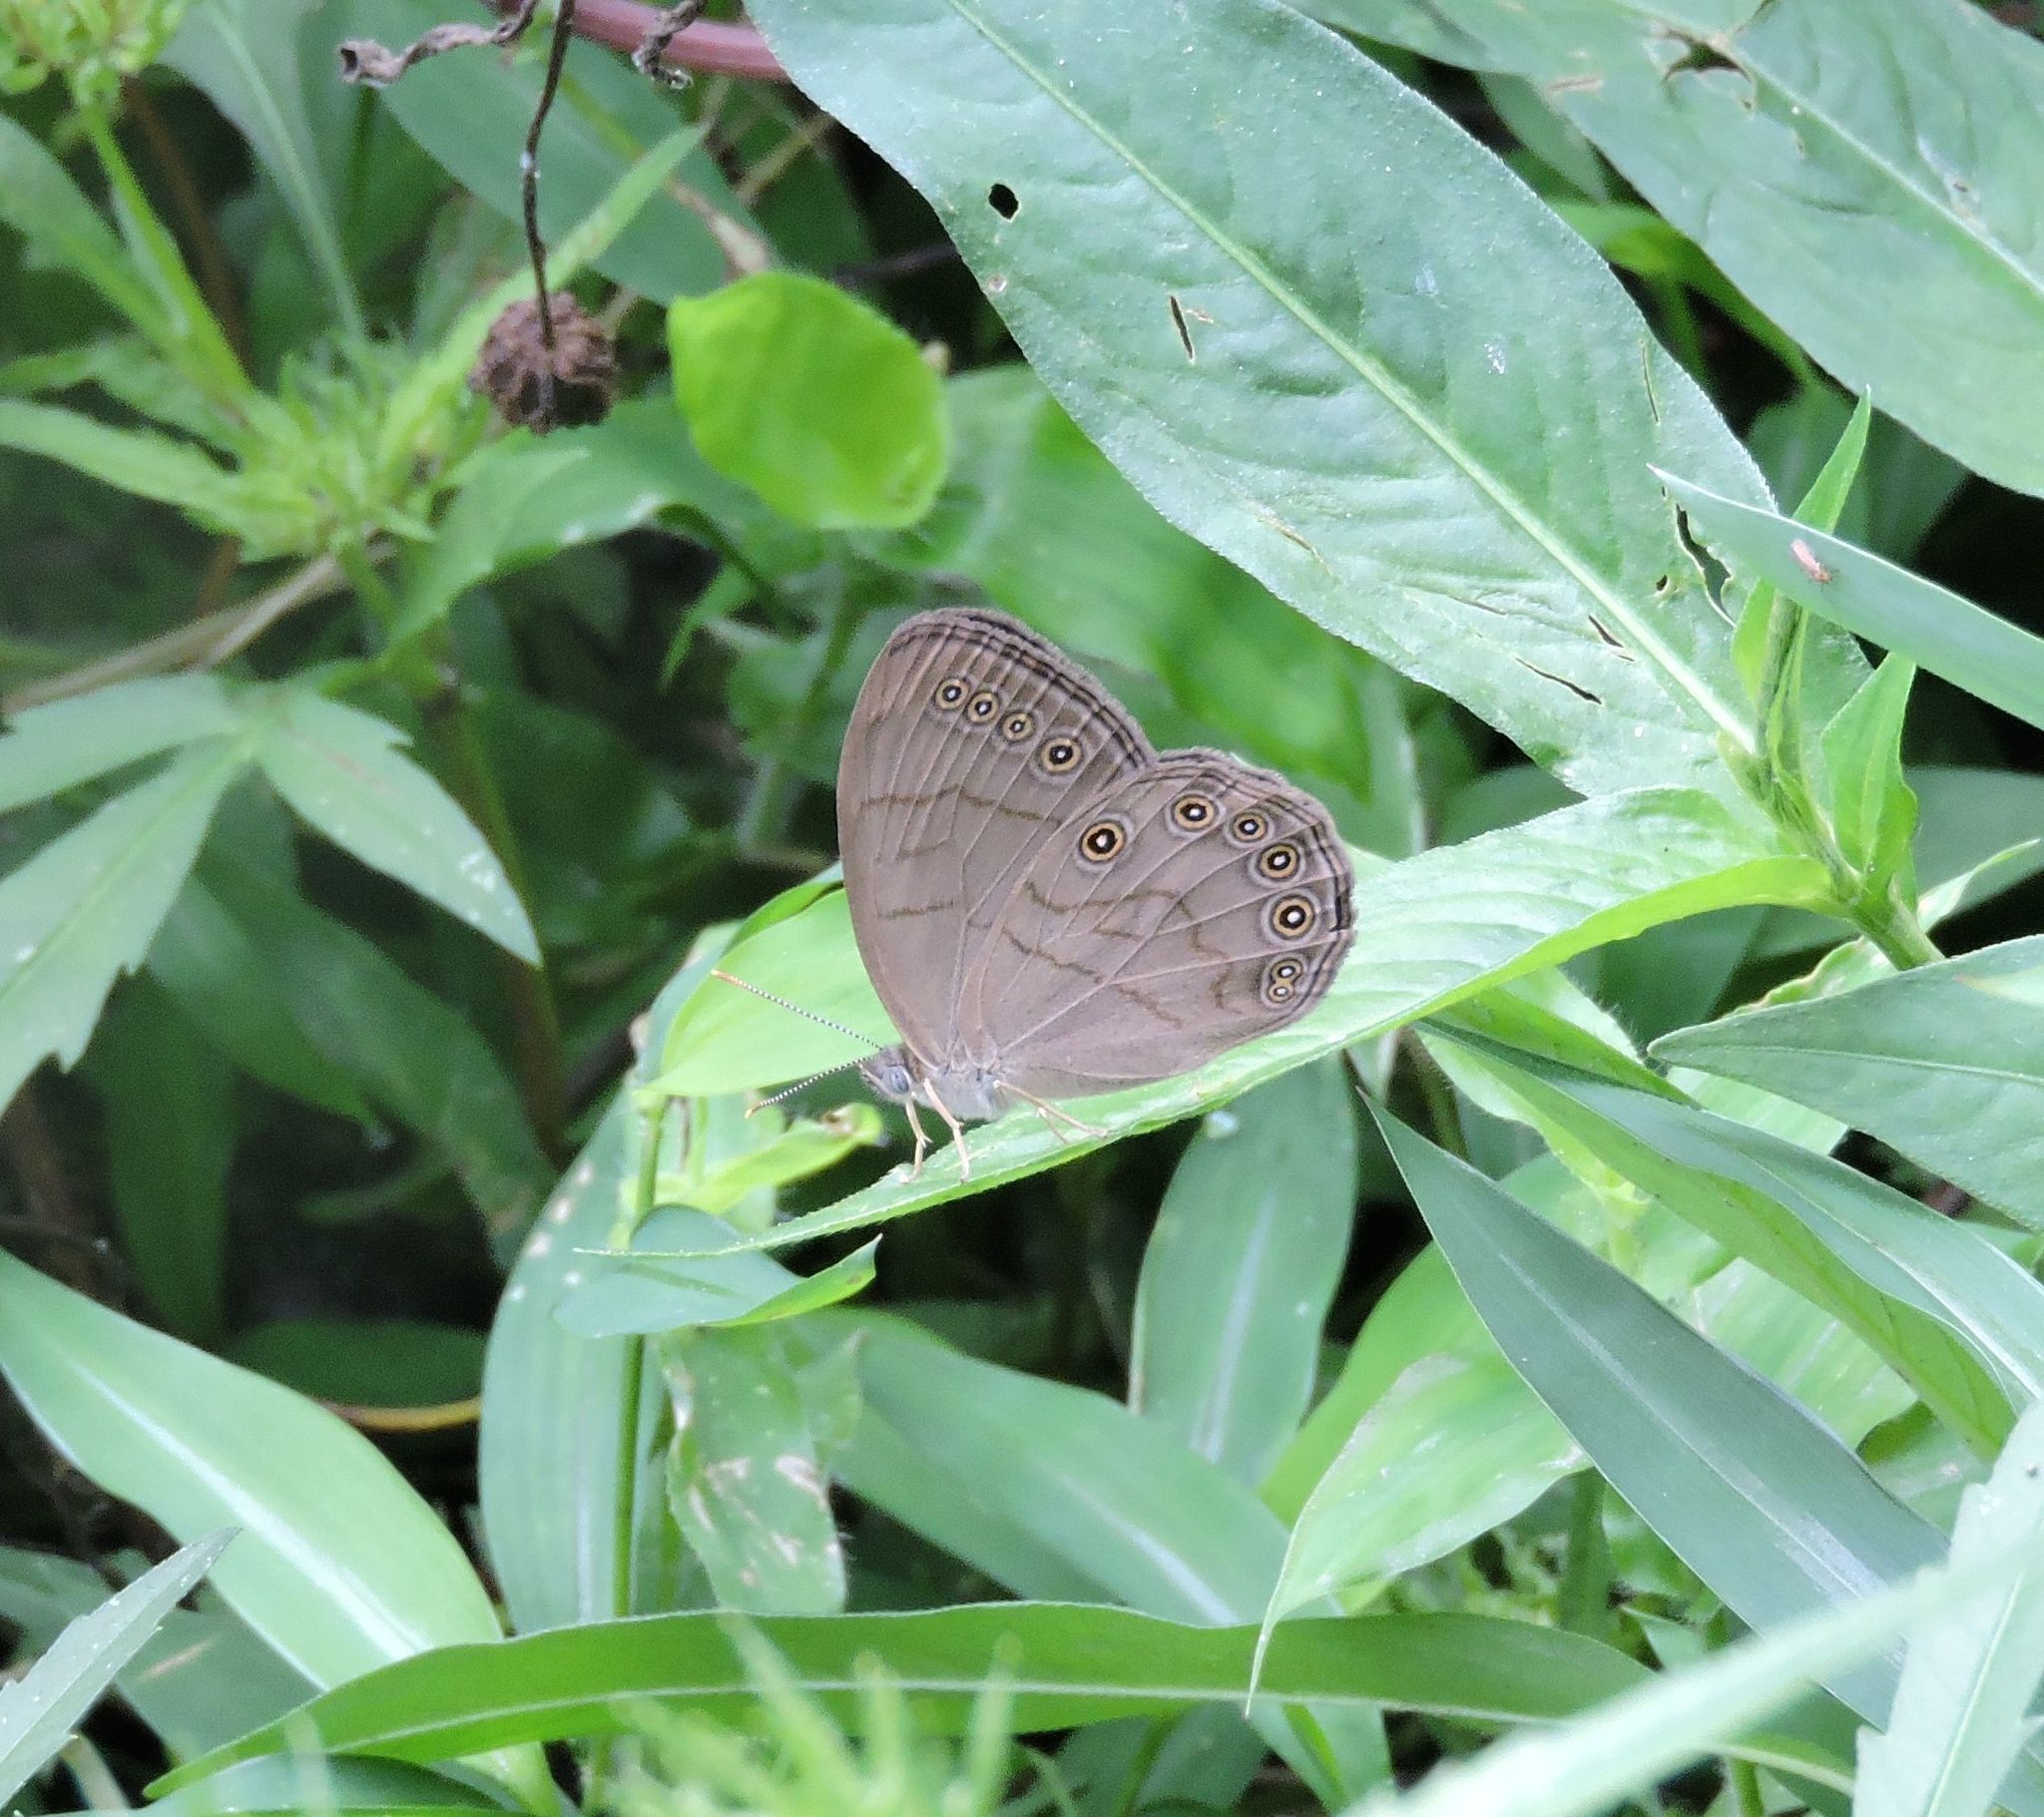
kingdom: Animalia
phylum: Arthropoda
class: Insecta
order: Lepidoptera
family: Nymphalidae
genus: Lethe
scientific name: Lethe eurydice
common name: Eyed brown
